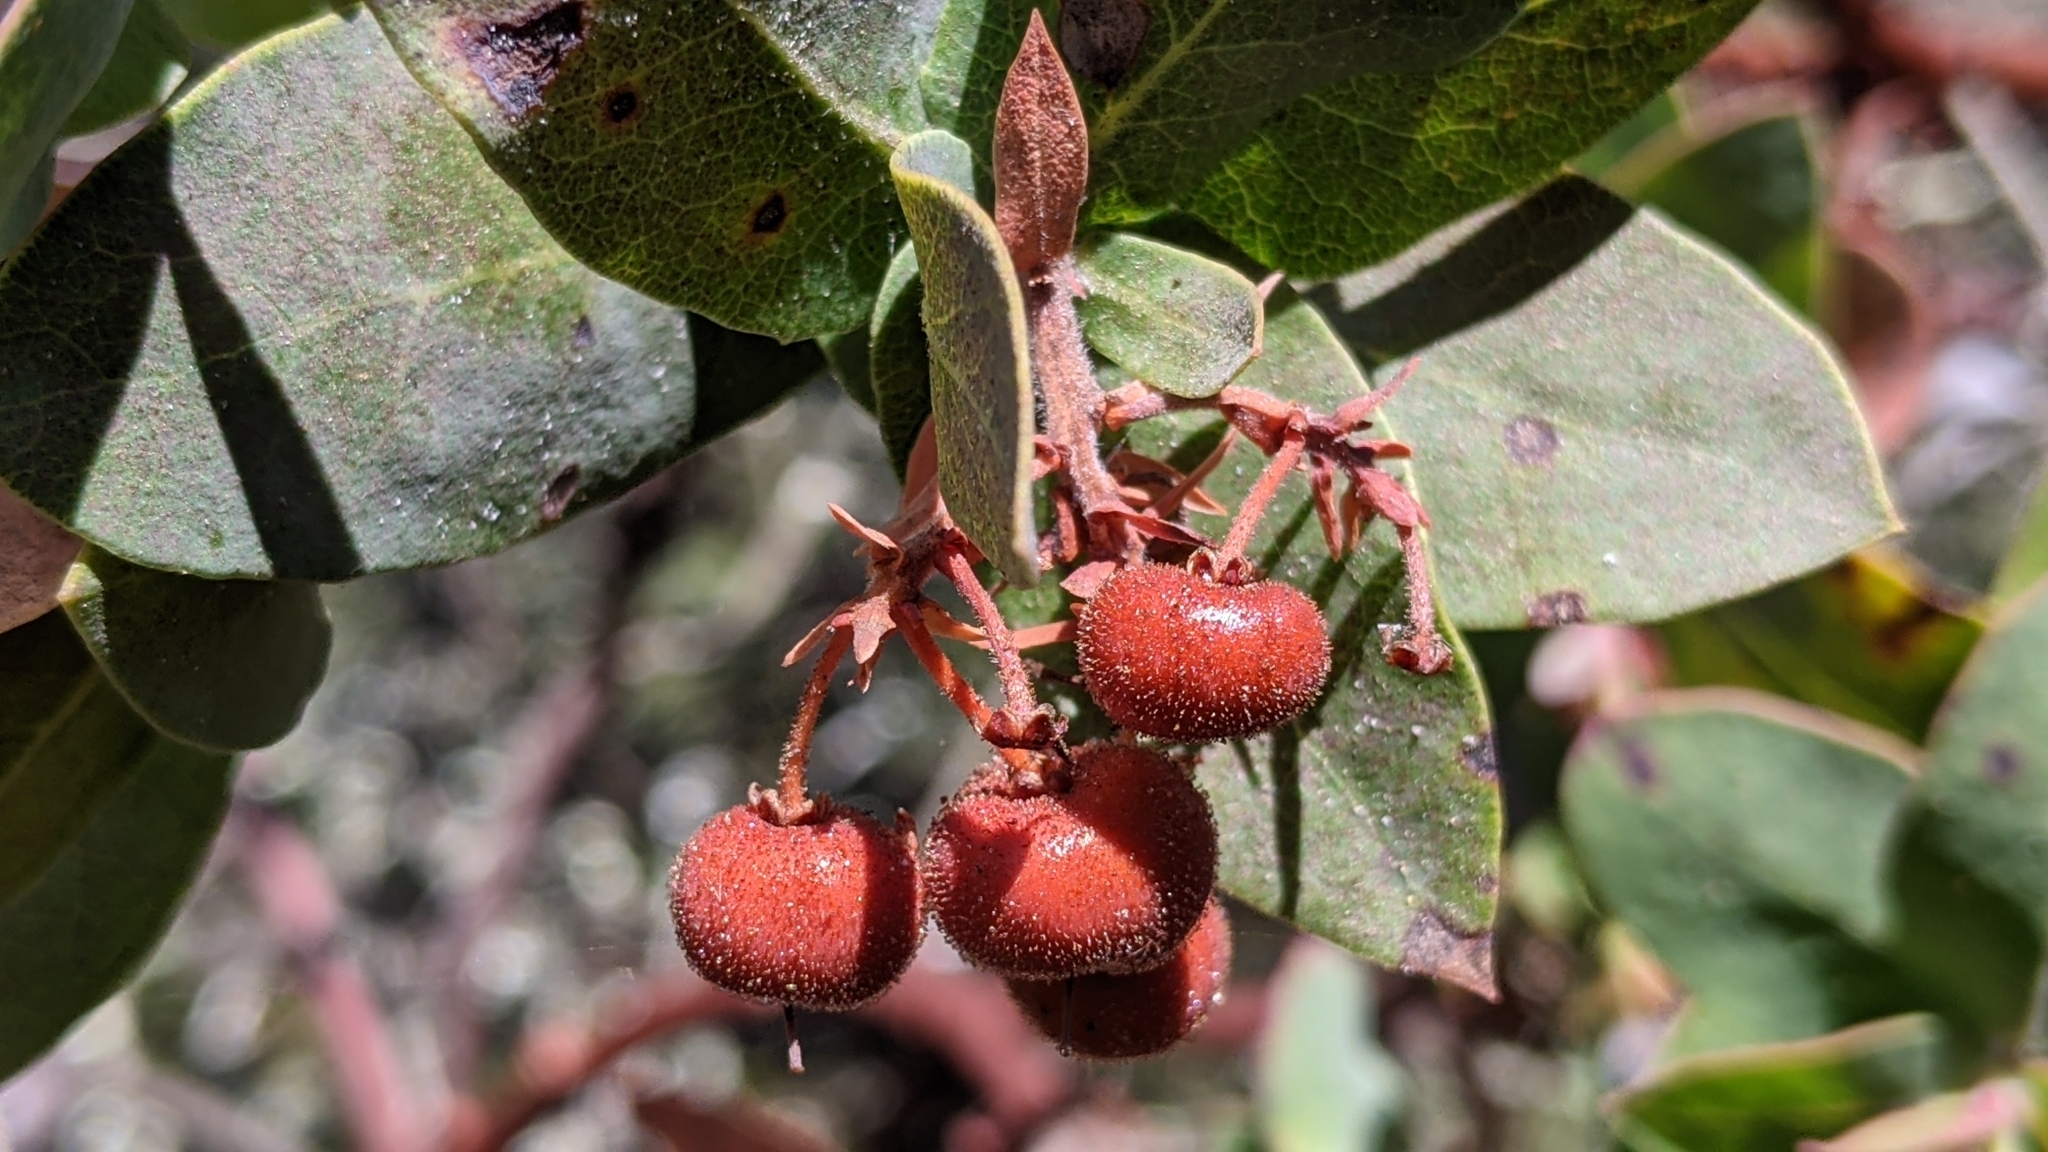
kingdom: Plantae
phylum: Tracheophyta
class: Magnoliopsida
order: Ericales
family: Ericaceae
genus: Arctostaphylos
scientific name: Arctostaphylos pallida
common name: Pallid manzanita
